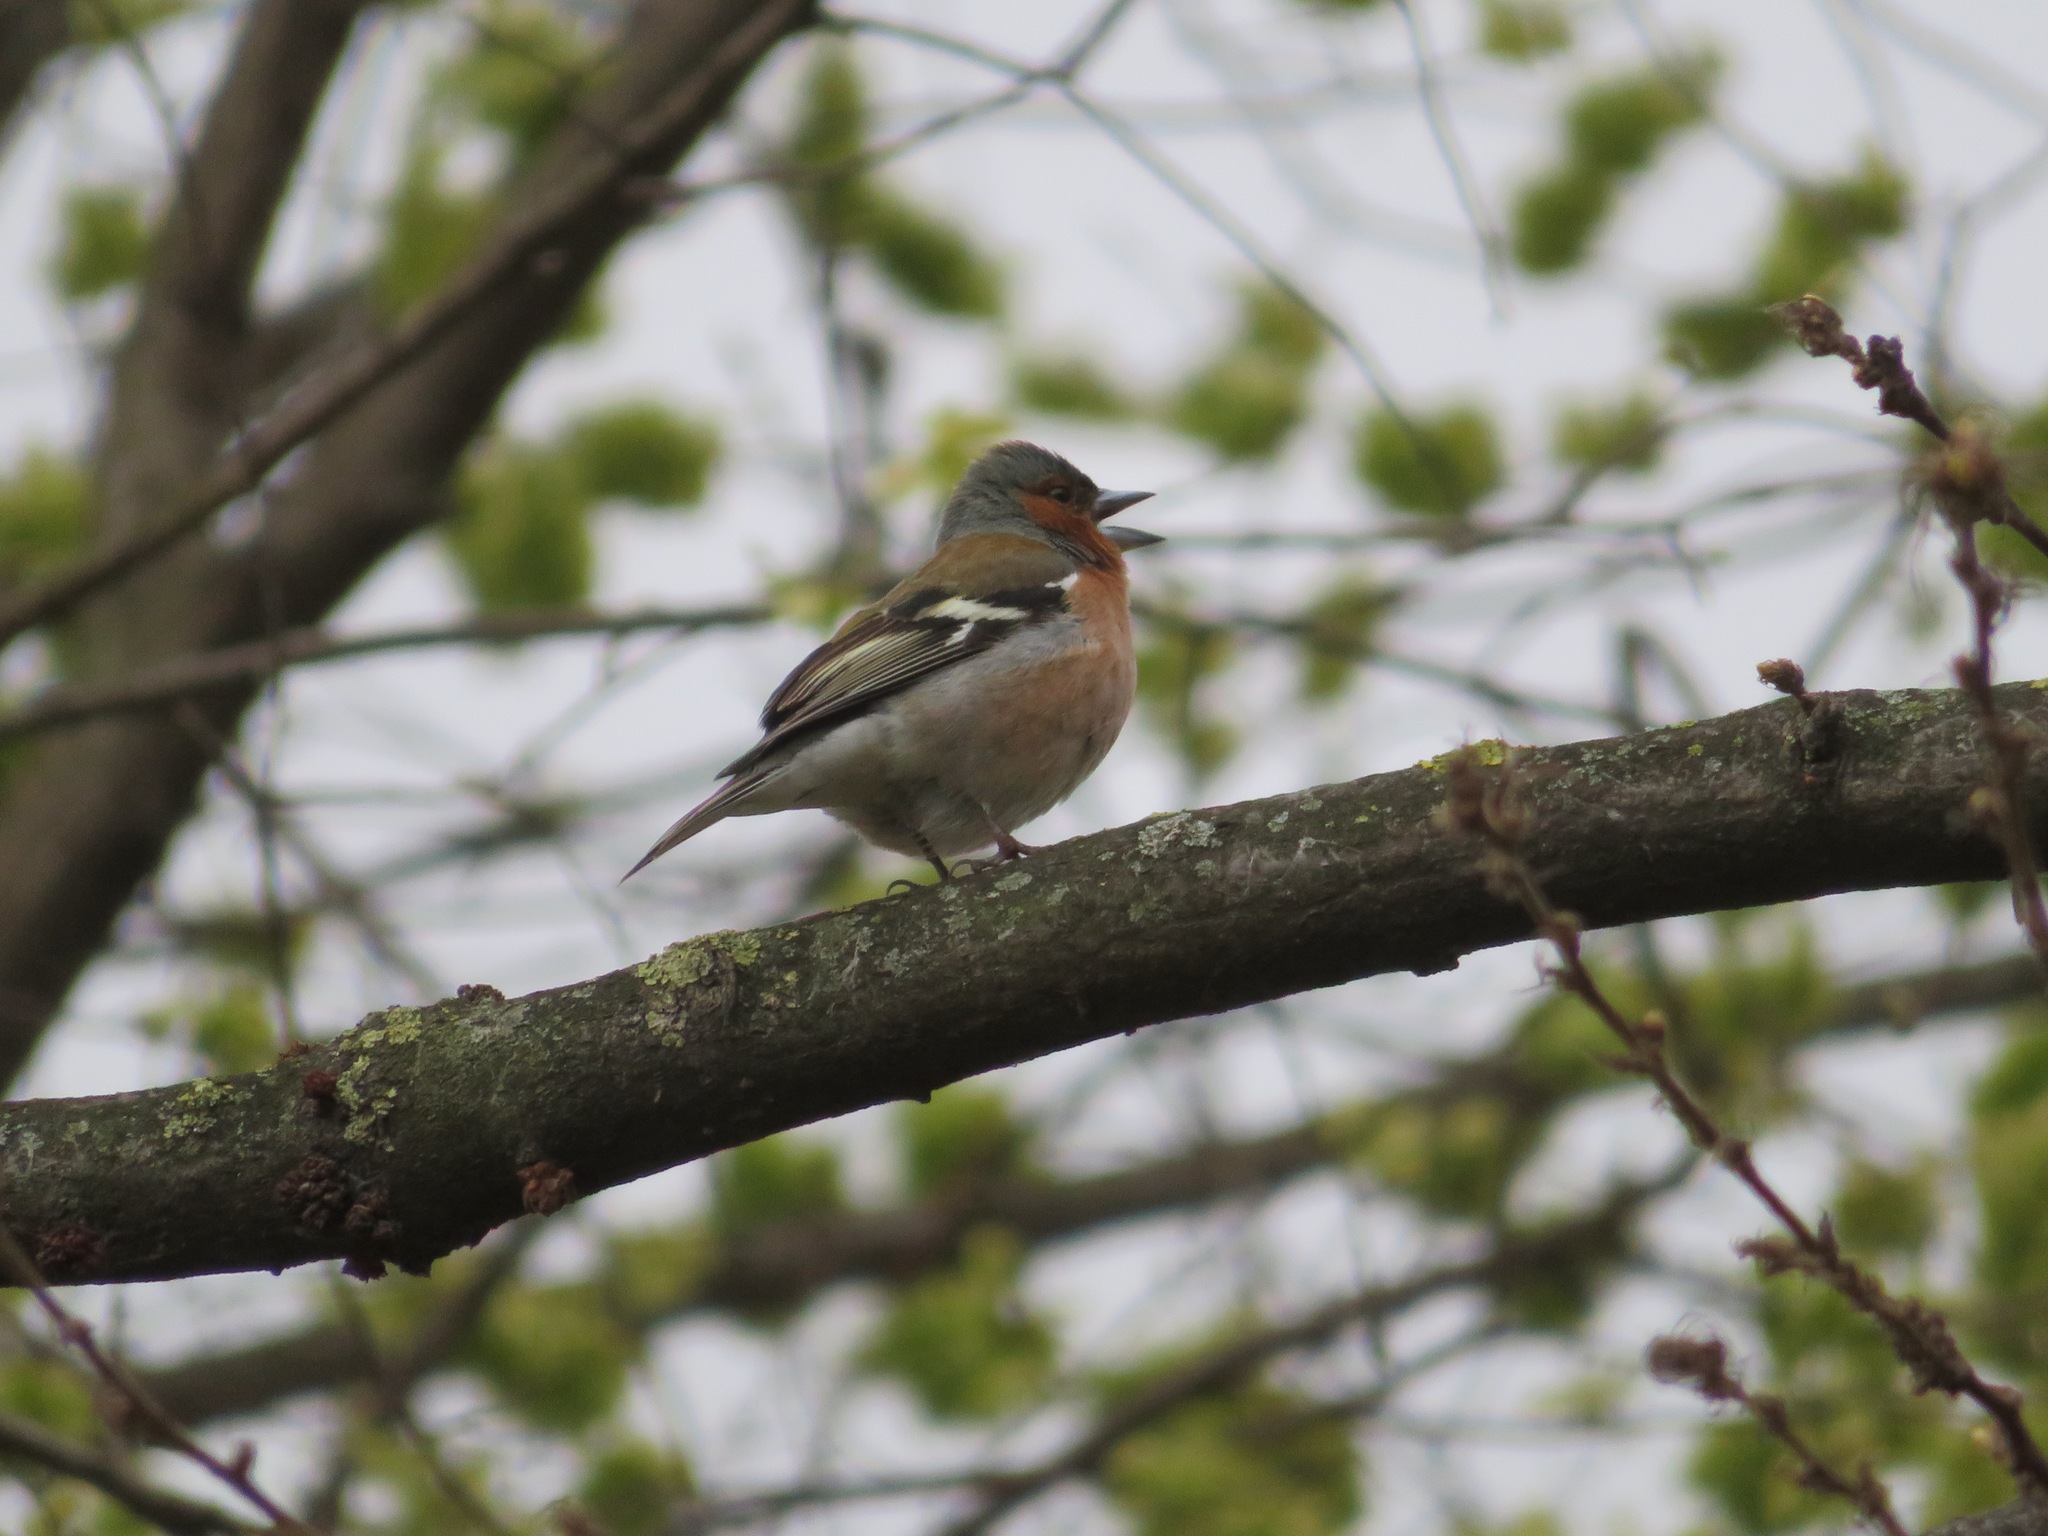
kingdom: Animalia
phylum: Chordata
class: Aves
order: Passeriformes
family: Fringillidae
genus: Fringilla
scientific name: Fringilla coelebs
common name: Common chaffinch
